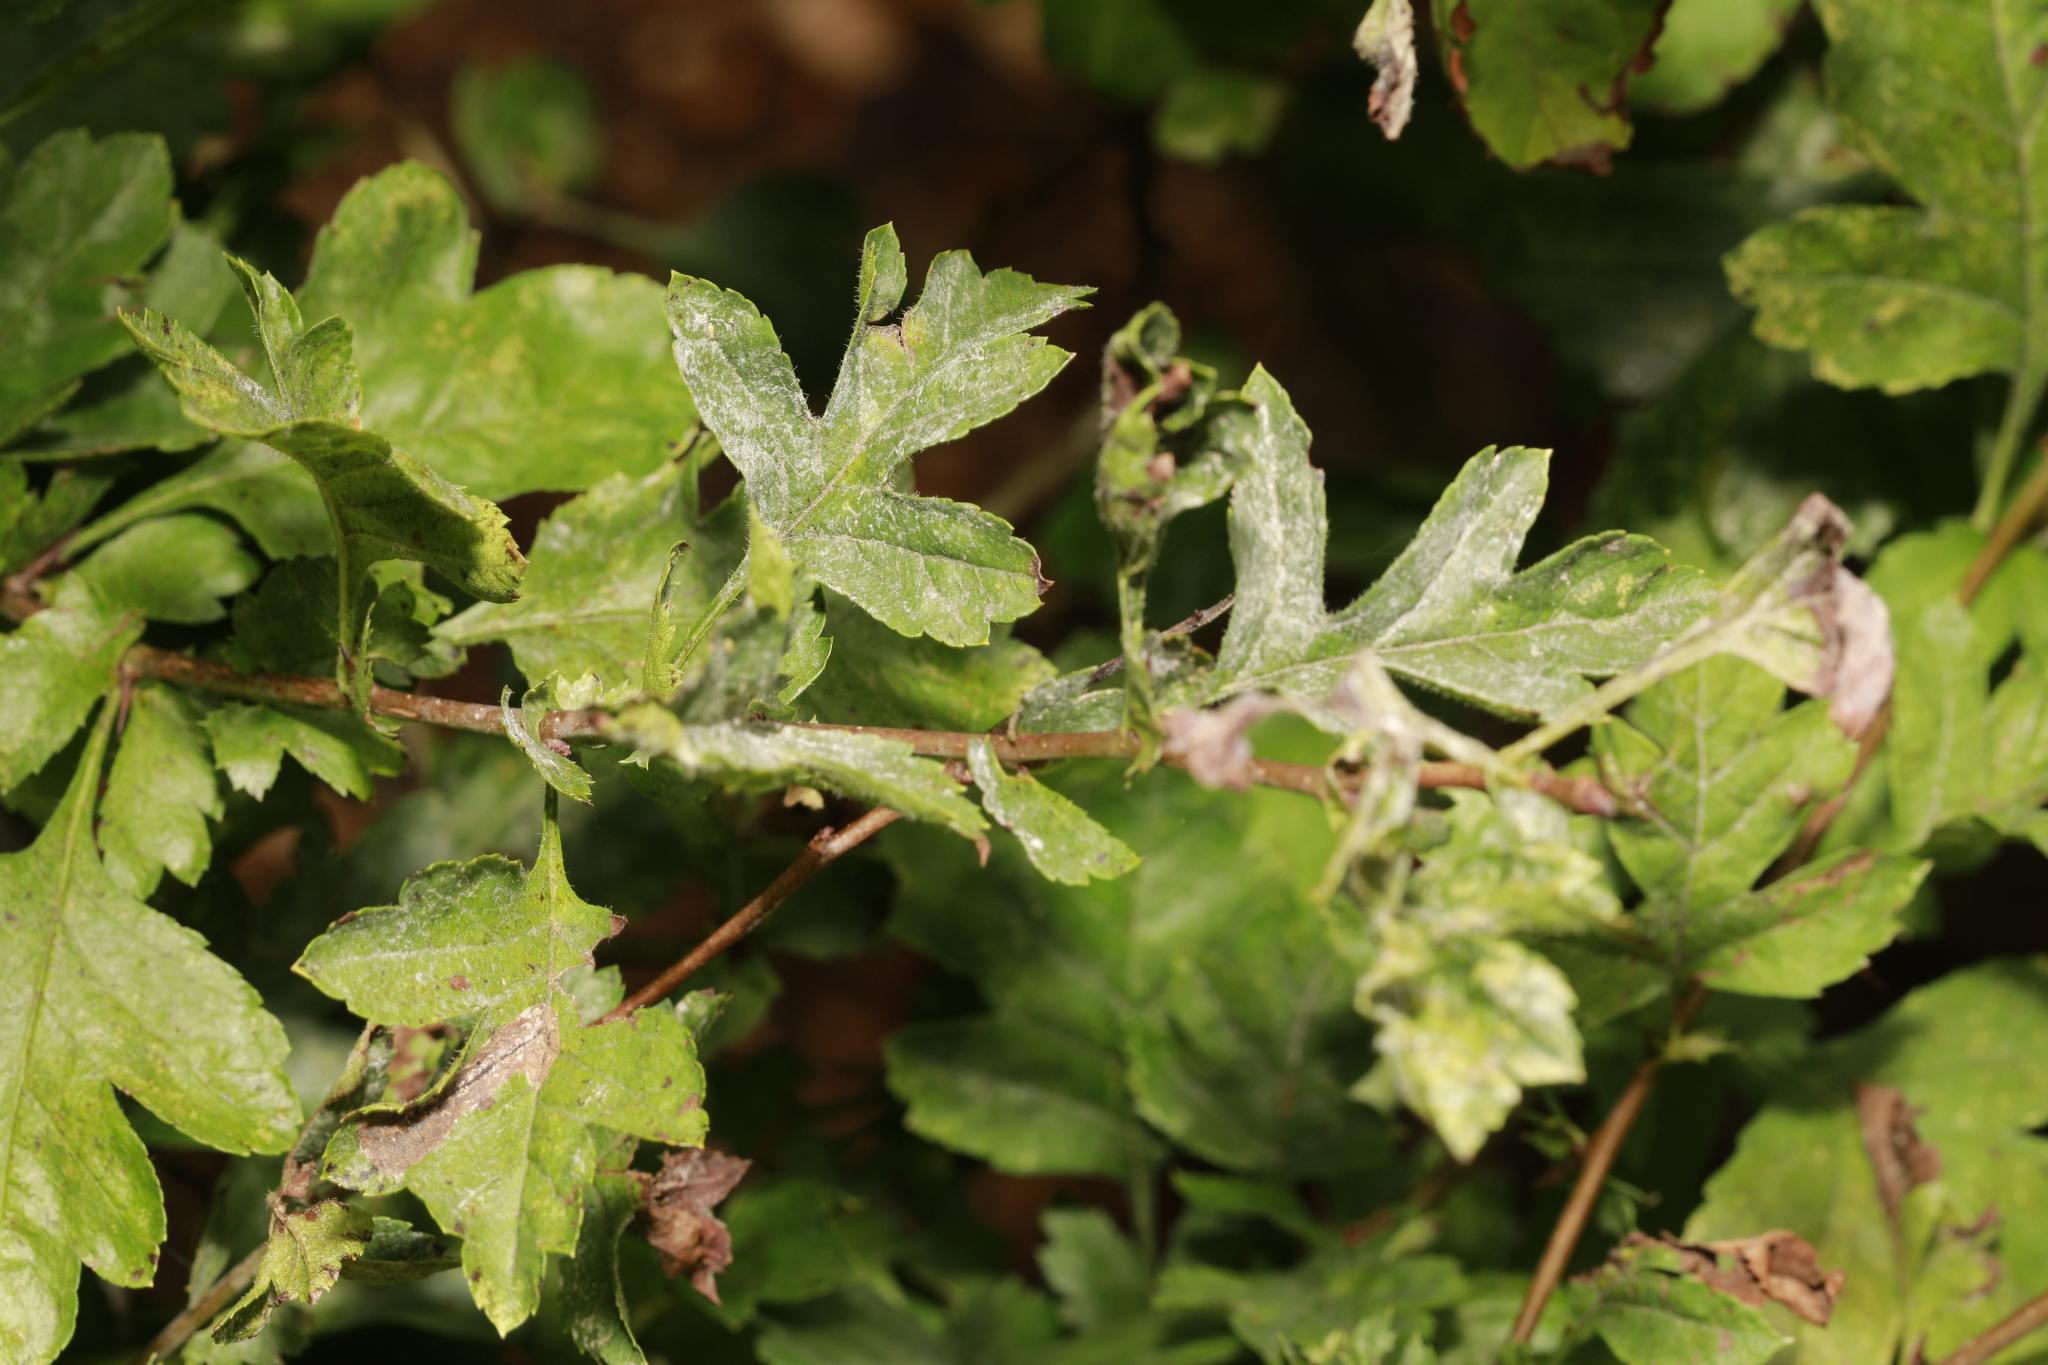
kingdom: Fungi
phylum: Ascomycota
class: Leotiomycetes
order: Helotiales
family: Erysiphaceae
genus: Podosphaera
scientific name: Podosphaera clandestina
